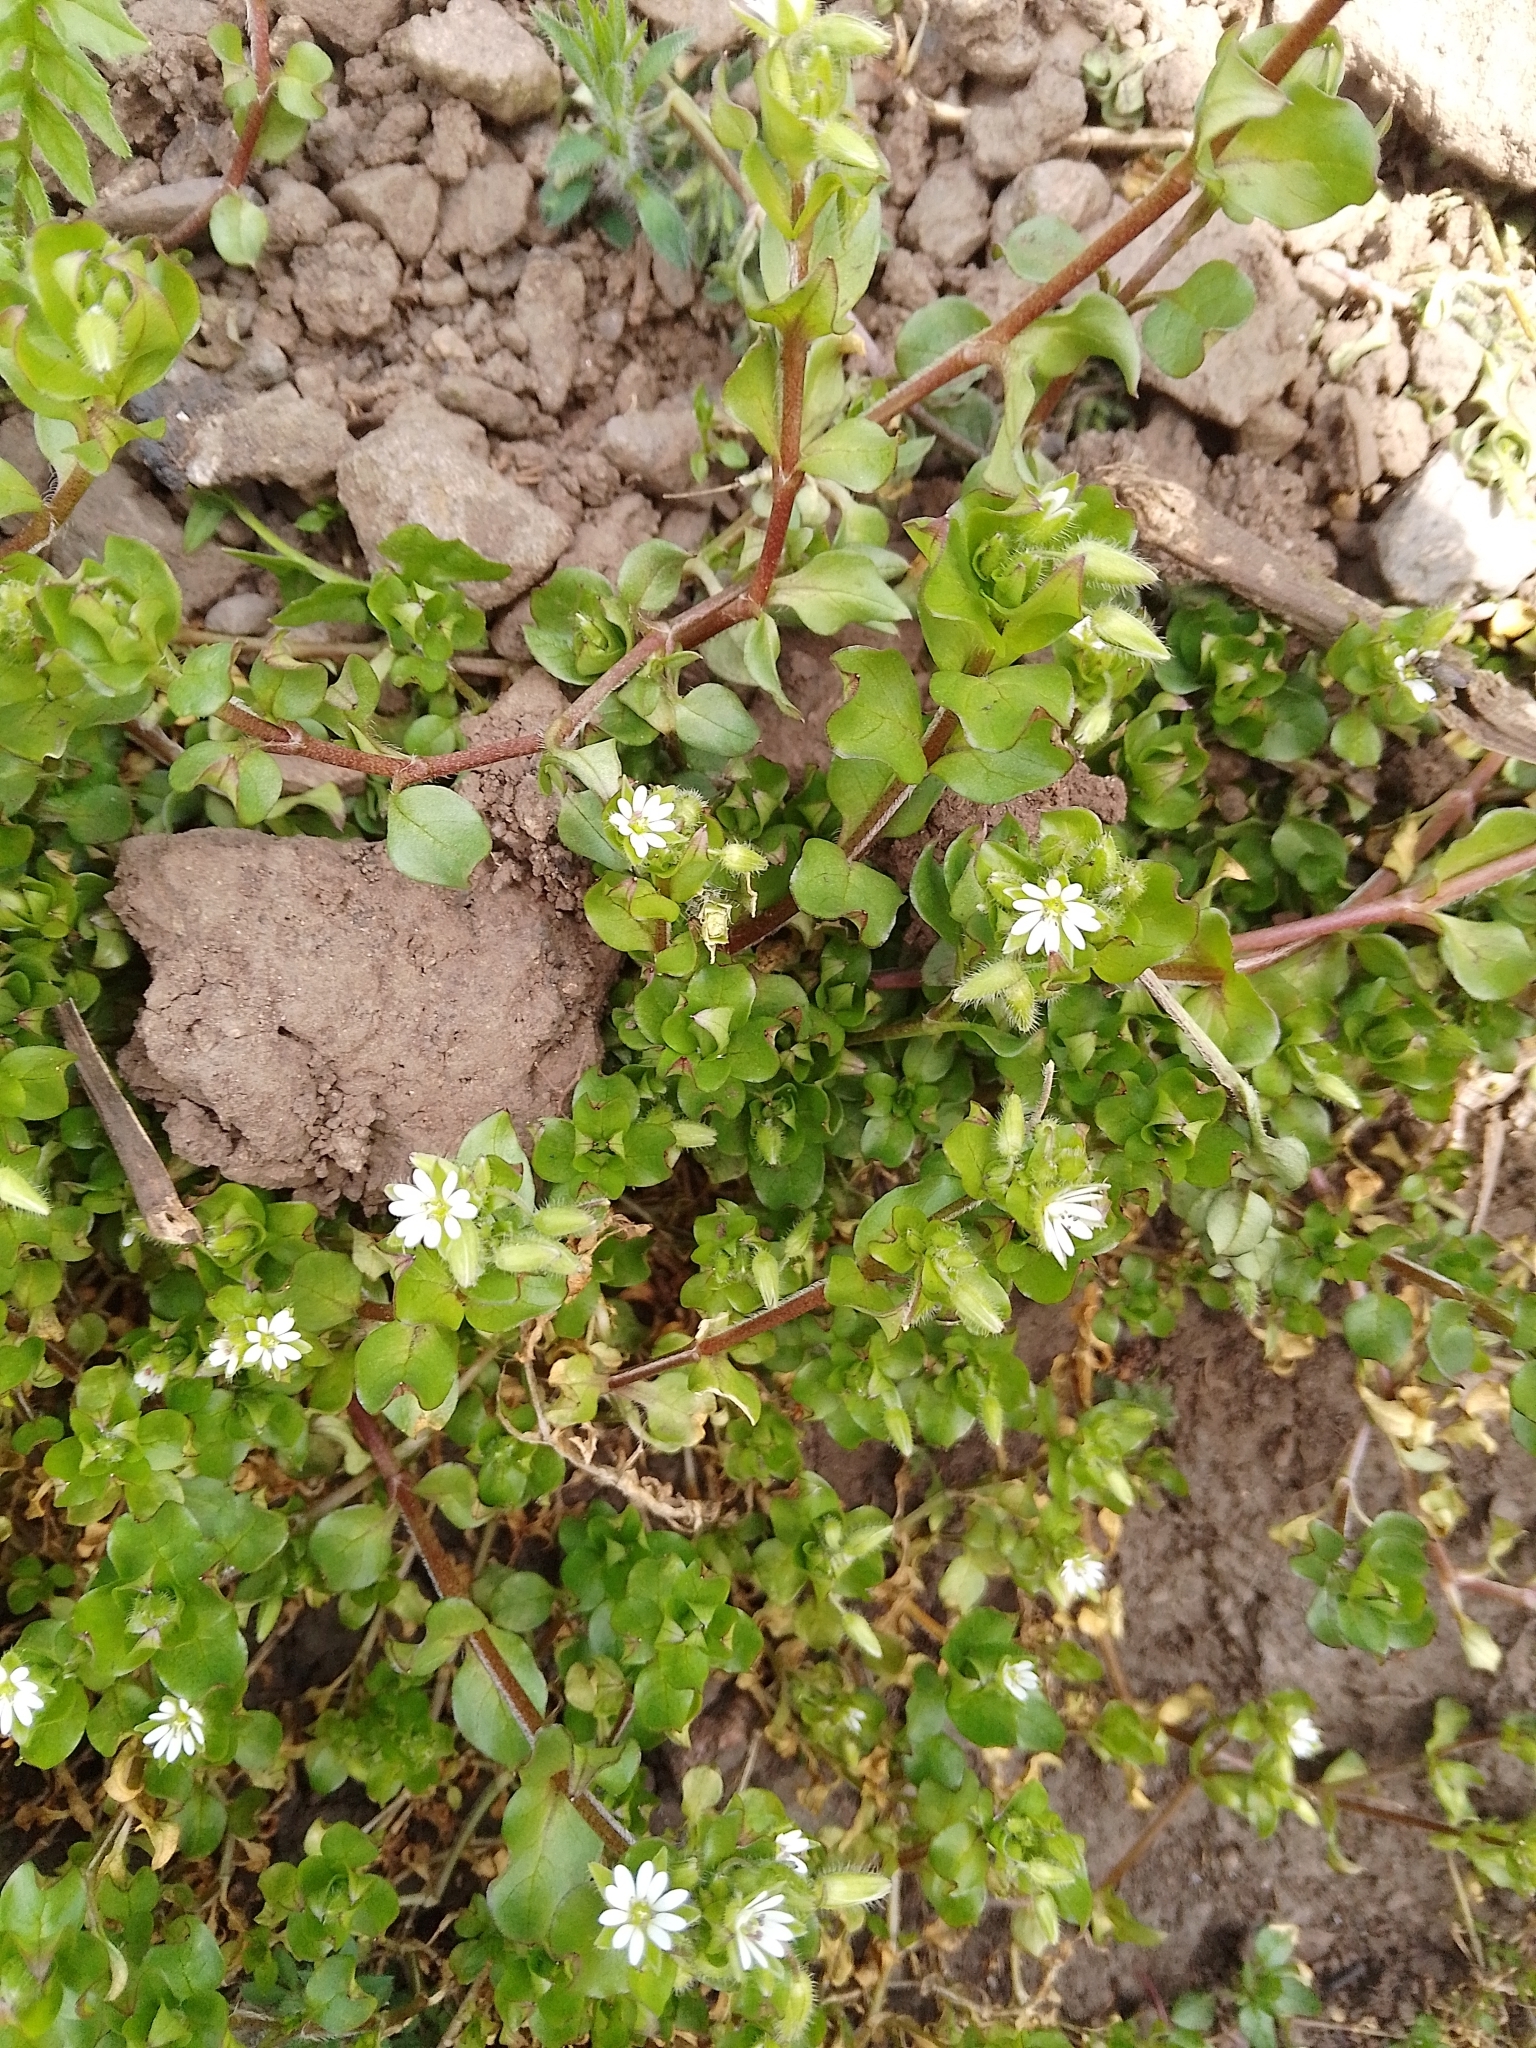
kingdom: Plantae
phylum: Tracheophyta
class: Magnoliopsida
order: Caryophyllales
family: Caryophyllaceae
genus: Stellaria
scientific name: Stellaria media
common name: Common chickweed
